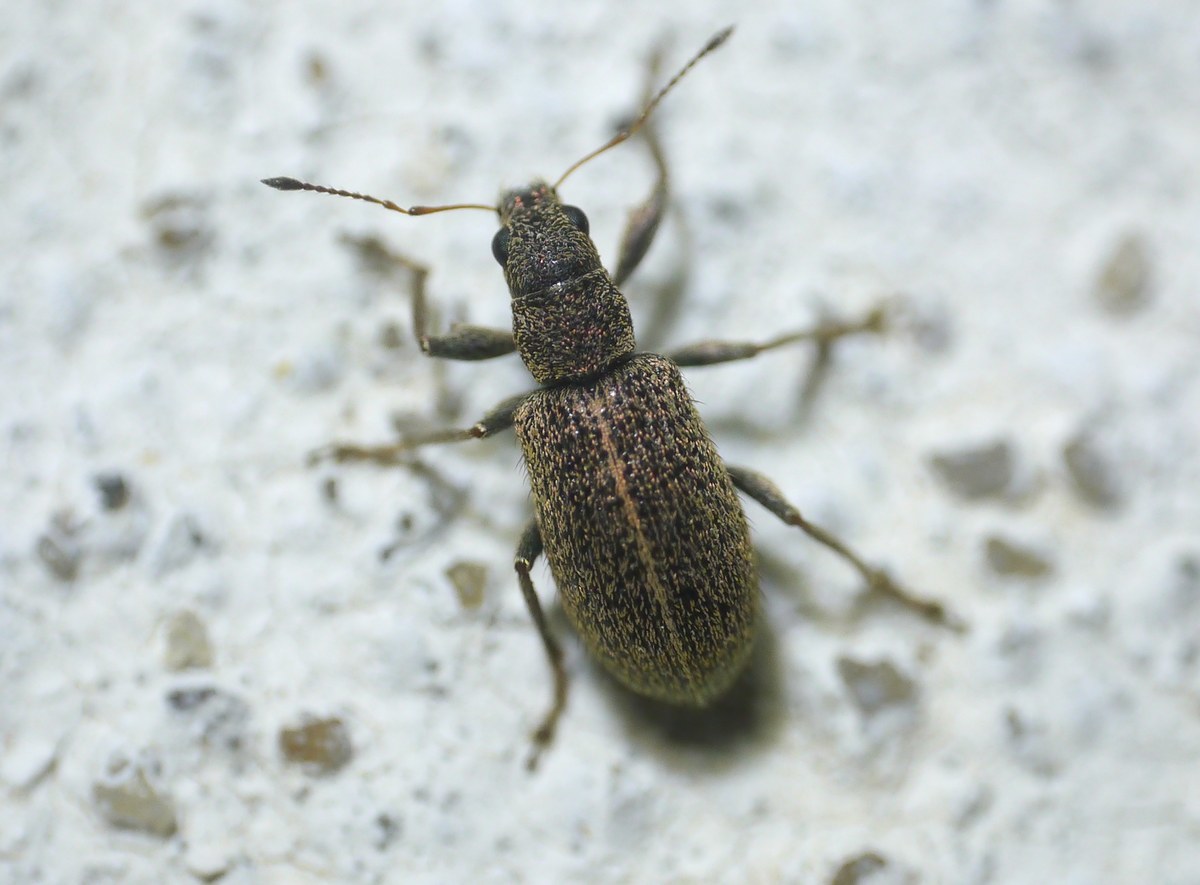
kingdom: Animalia
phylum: Arthropoda
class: Insecta
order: Coleoptera
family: Curculionidae
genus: Polydrusus
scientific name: Polydrusus piliferus
